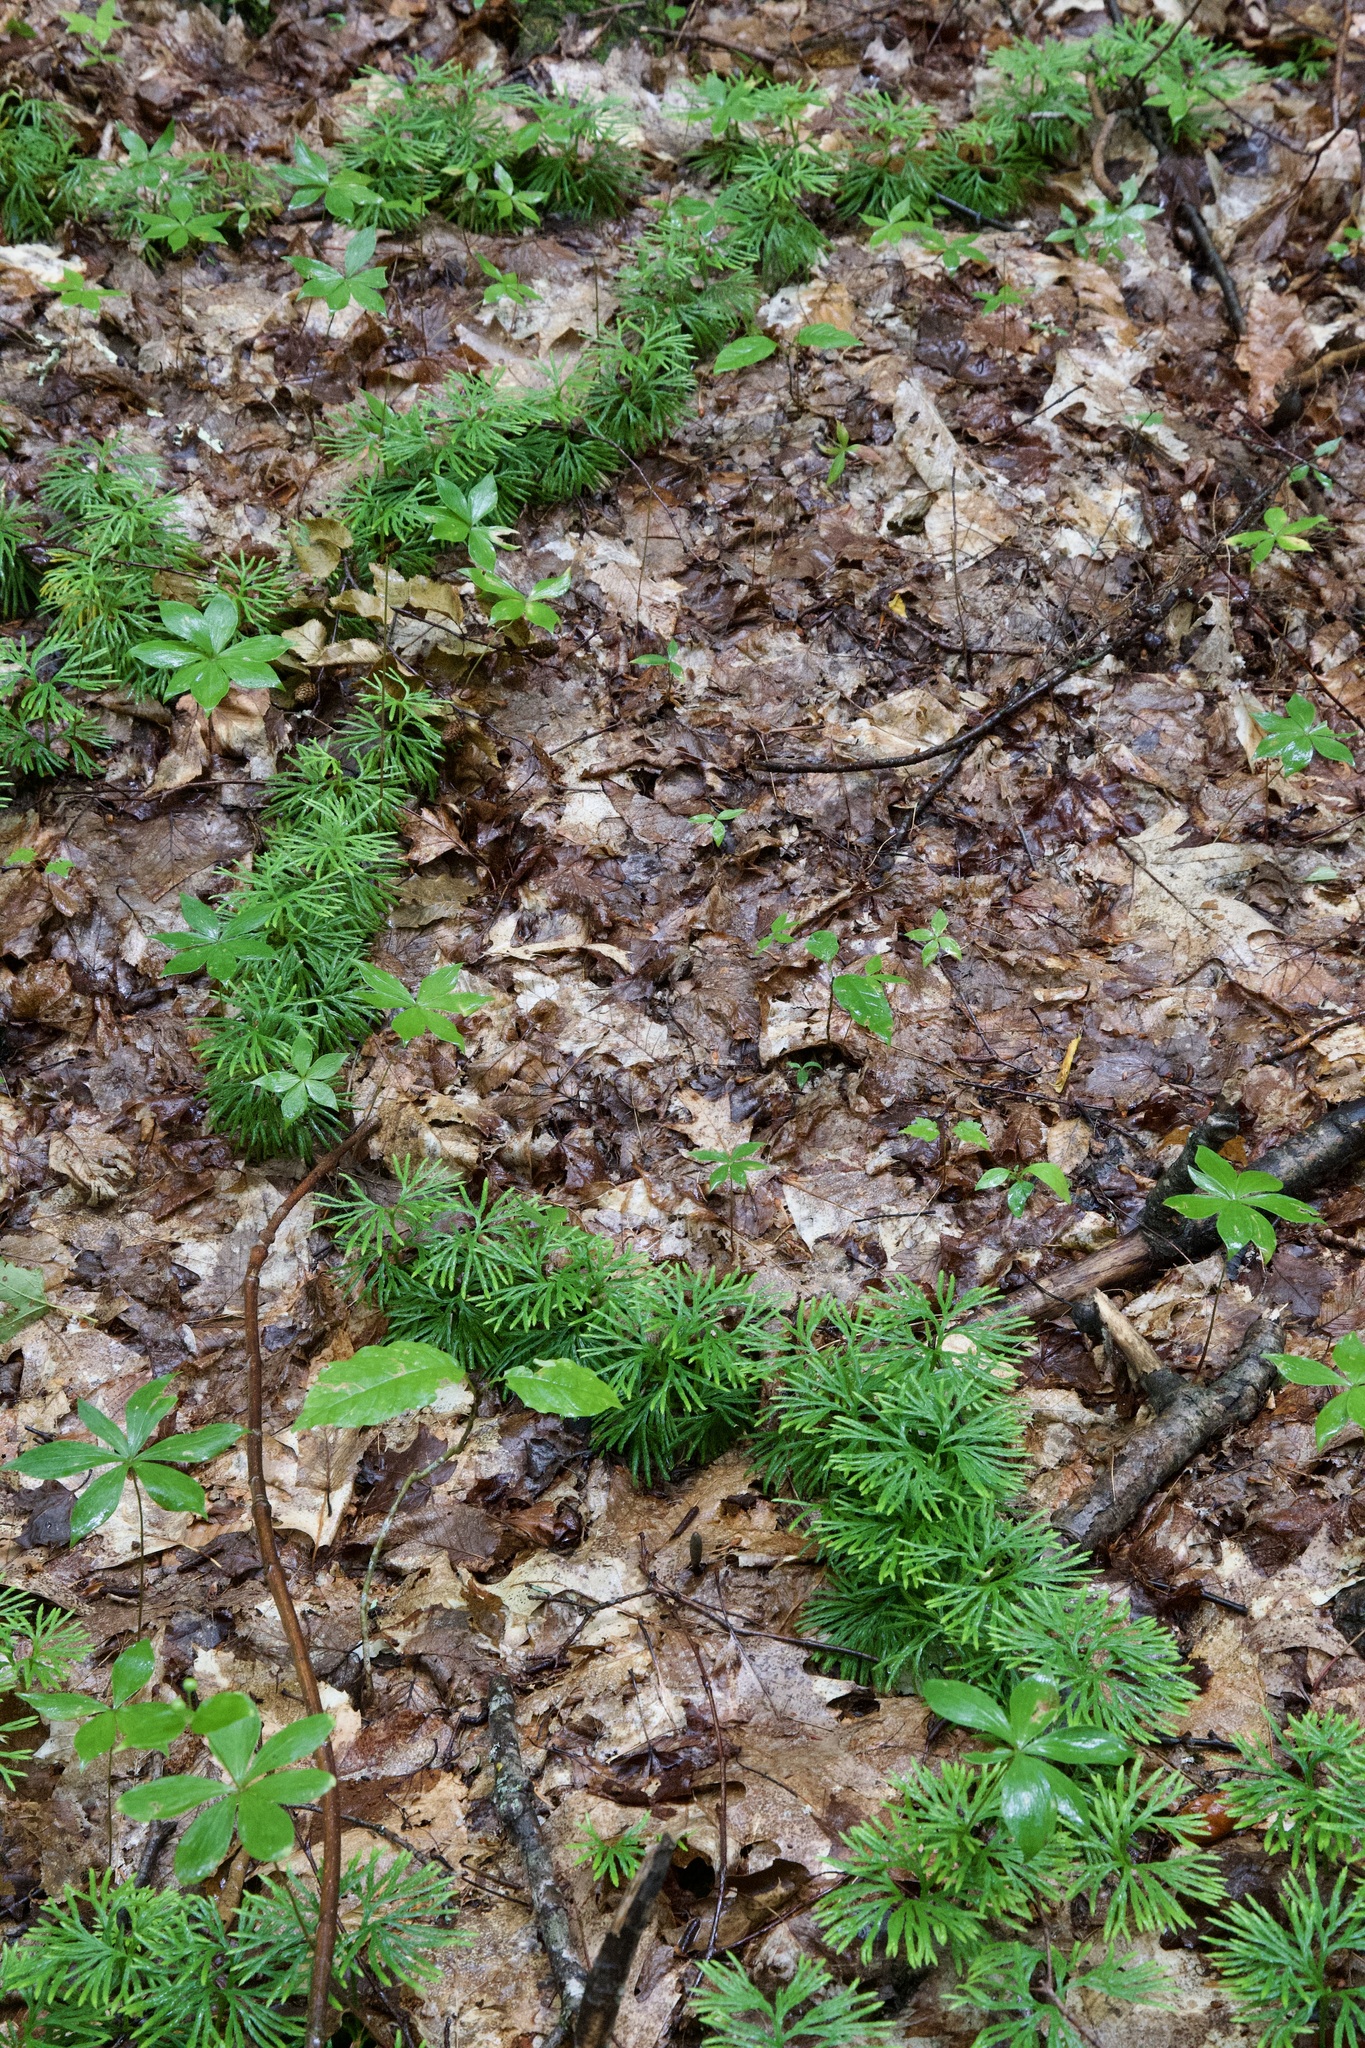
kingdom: Plantae
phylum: Tracheophyta
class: Lycopodiopsida
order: Lycopodiales
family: Lycopodiaceae
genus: Diphasiastrum
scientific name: Diphasiastrum digitatum
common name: Southern running-pine
